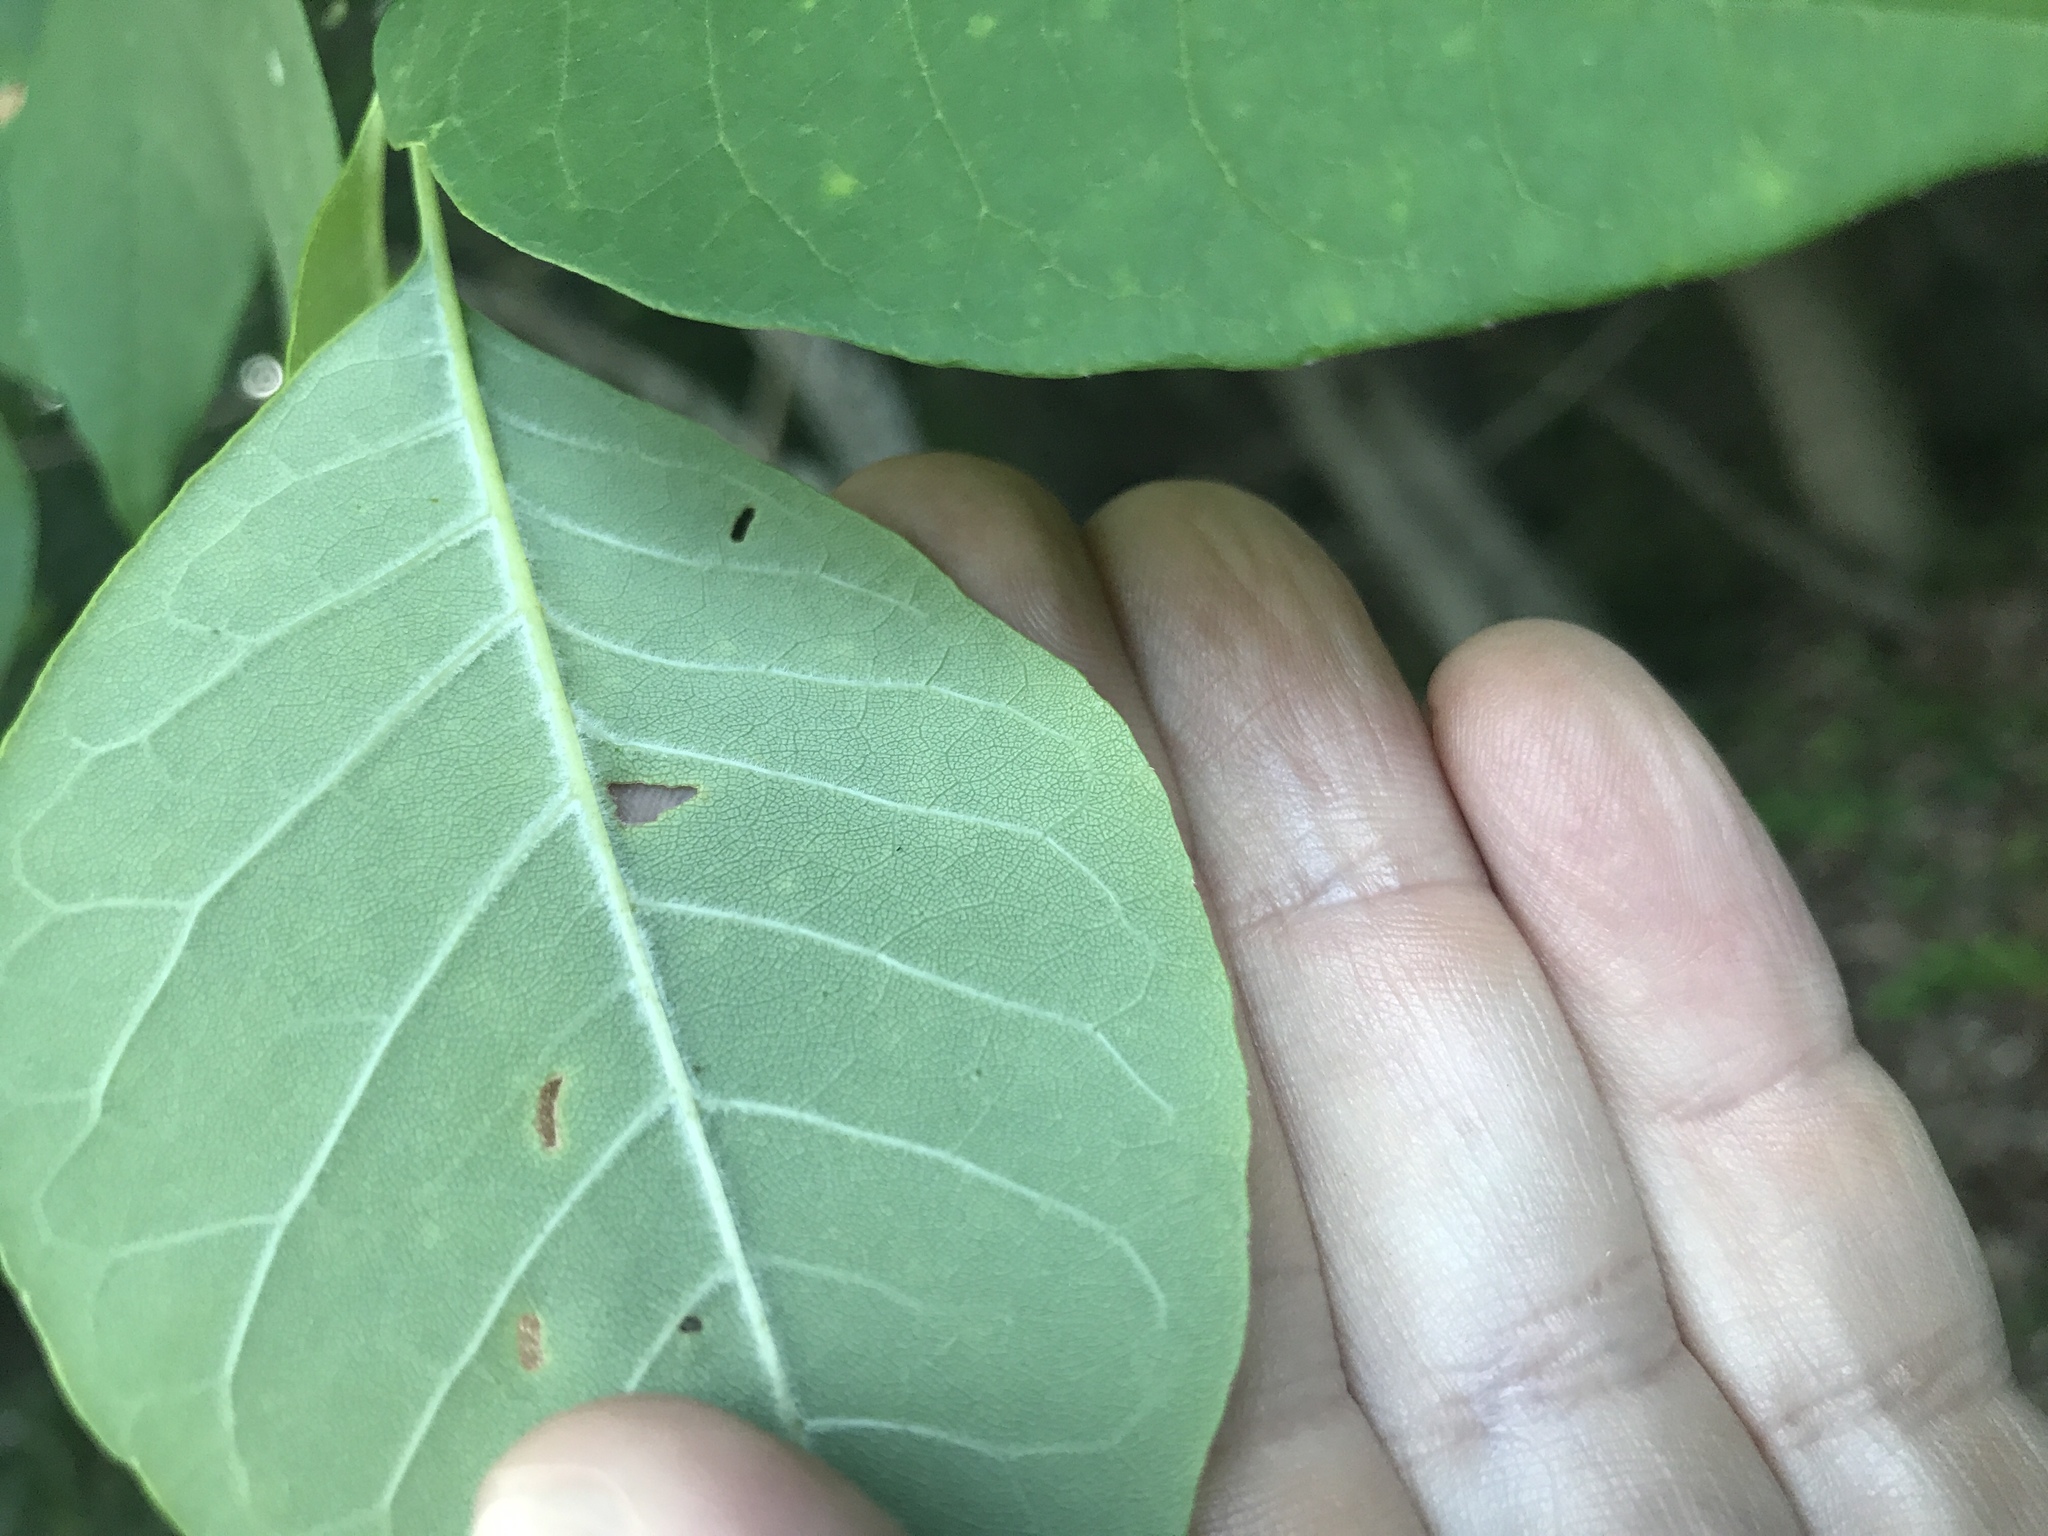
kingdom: Plantae
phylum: Tracheophyta
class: Magnoliopsida
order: Lamiales
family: Oleaceae
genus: Fraxinus
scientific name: Fraxinus americana
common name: White ash
